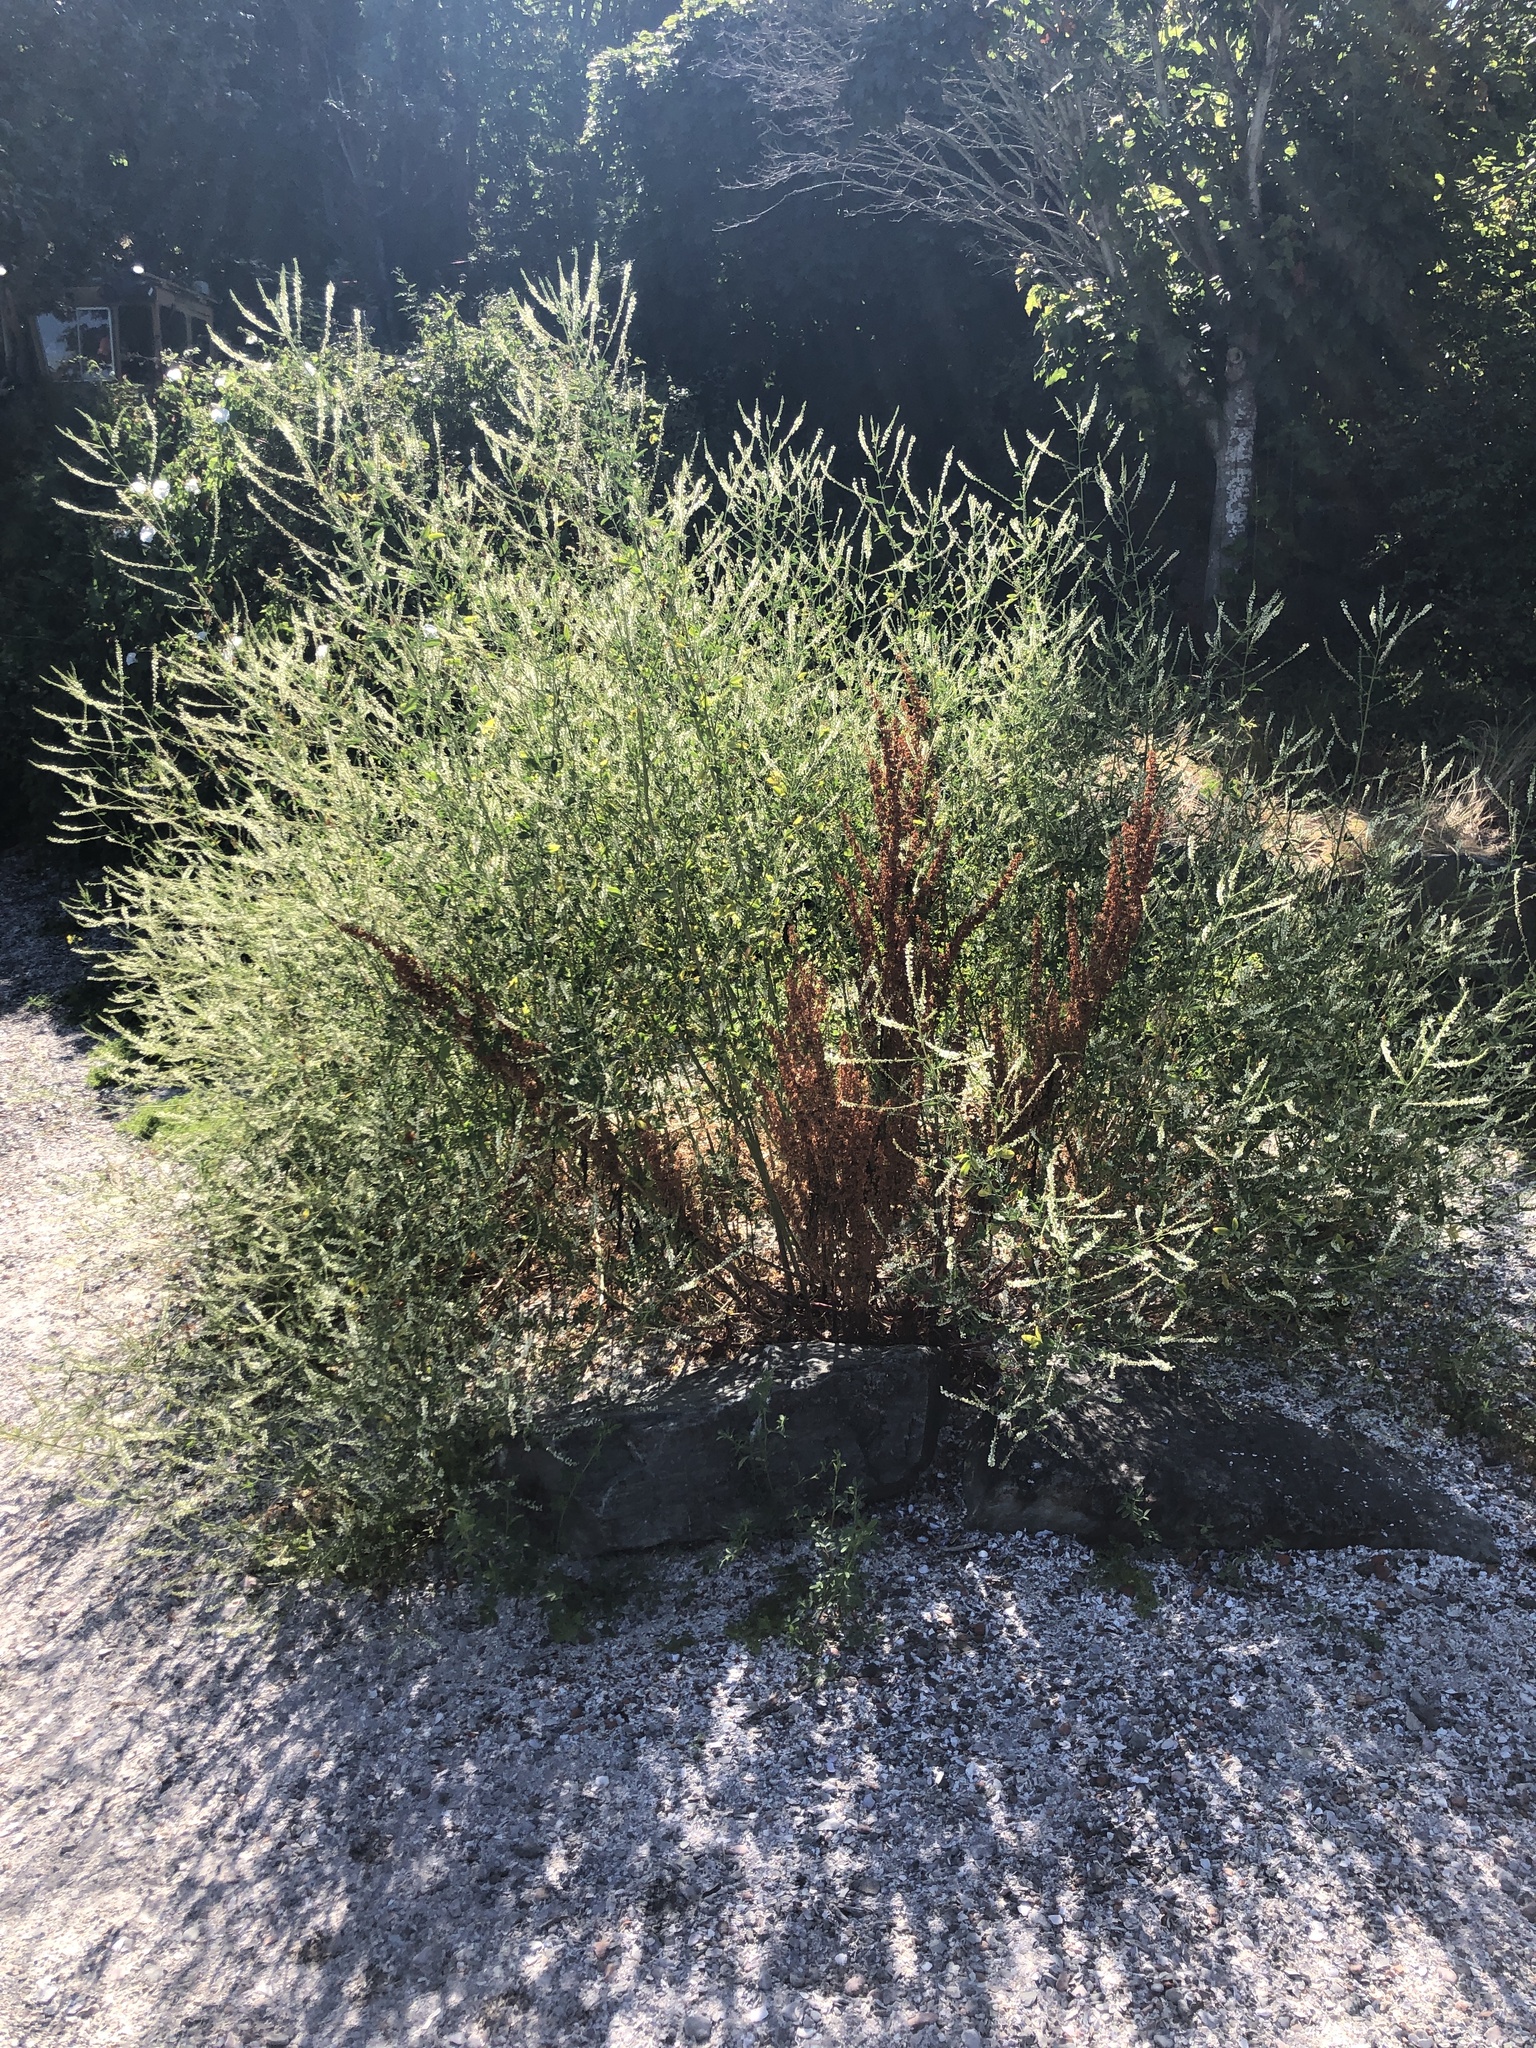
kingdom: Plantae
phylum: Tracheophyta
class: Magnoliopsida
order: Fabales
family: Fabaceae
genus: Melilotus
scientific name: Melilotus albus
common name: White melilot
